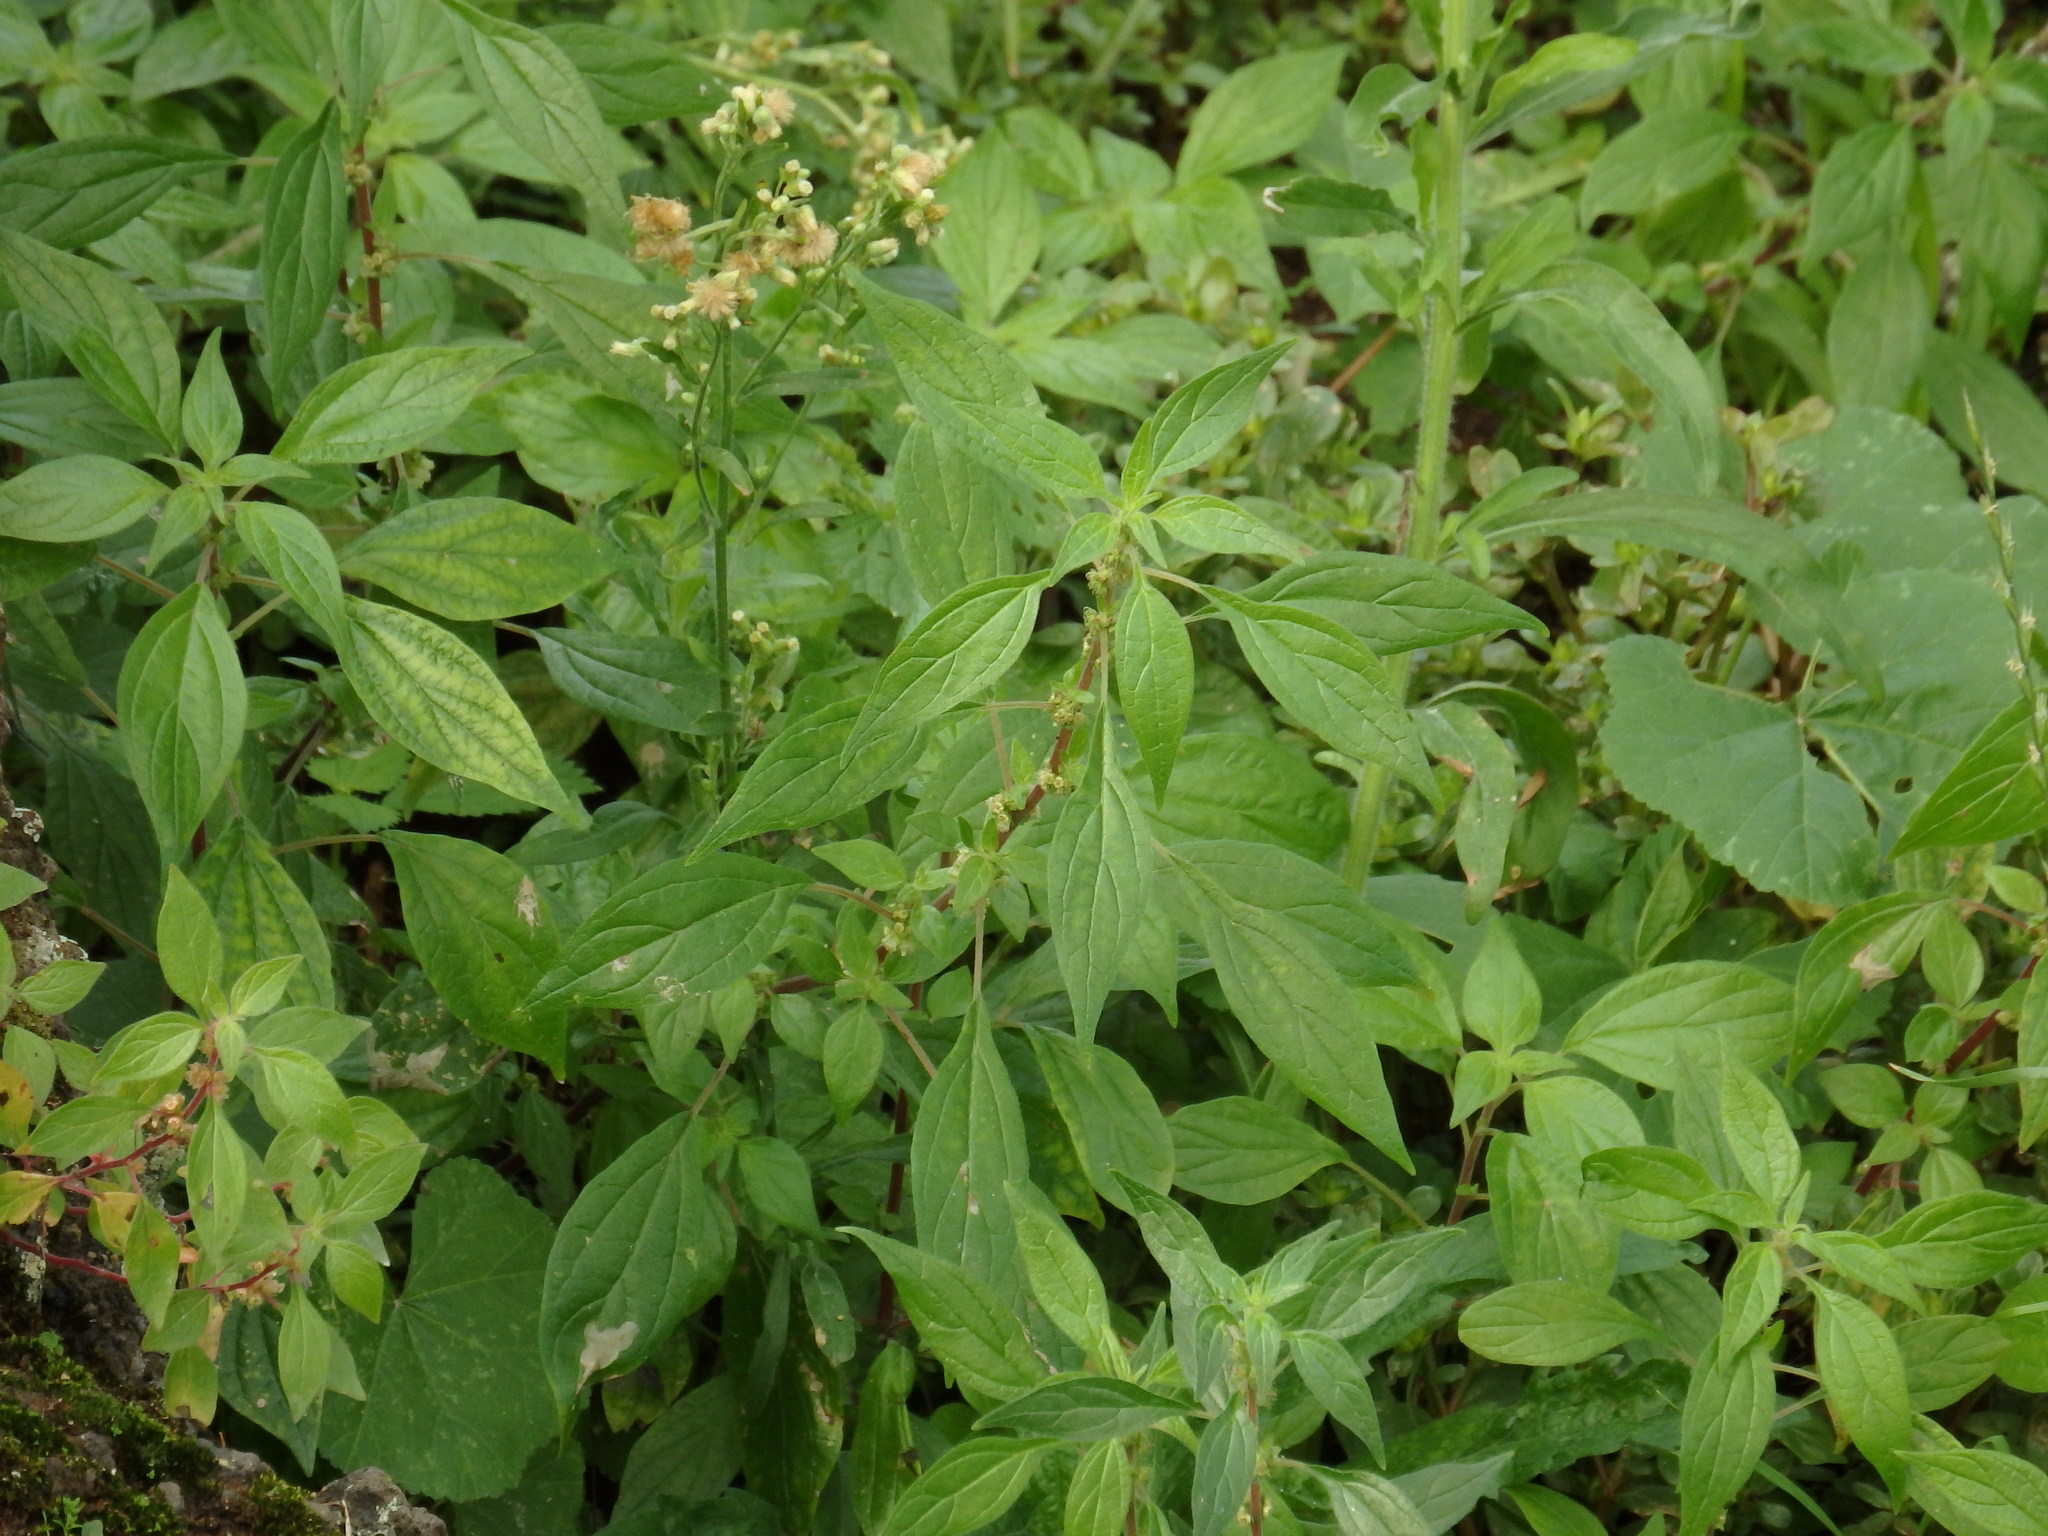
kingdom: Plantae
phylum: Tracheophyta
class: Magnoliopsida
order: Rosales
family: Urticaceae
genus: Parietaria
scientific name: Parietaria judaica
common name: Pellitory-of-the-wall
